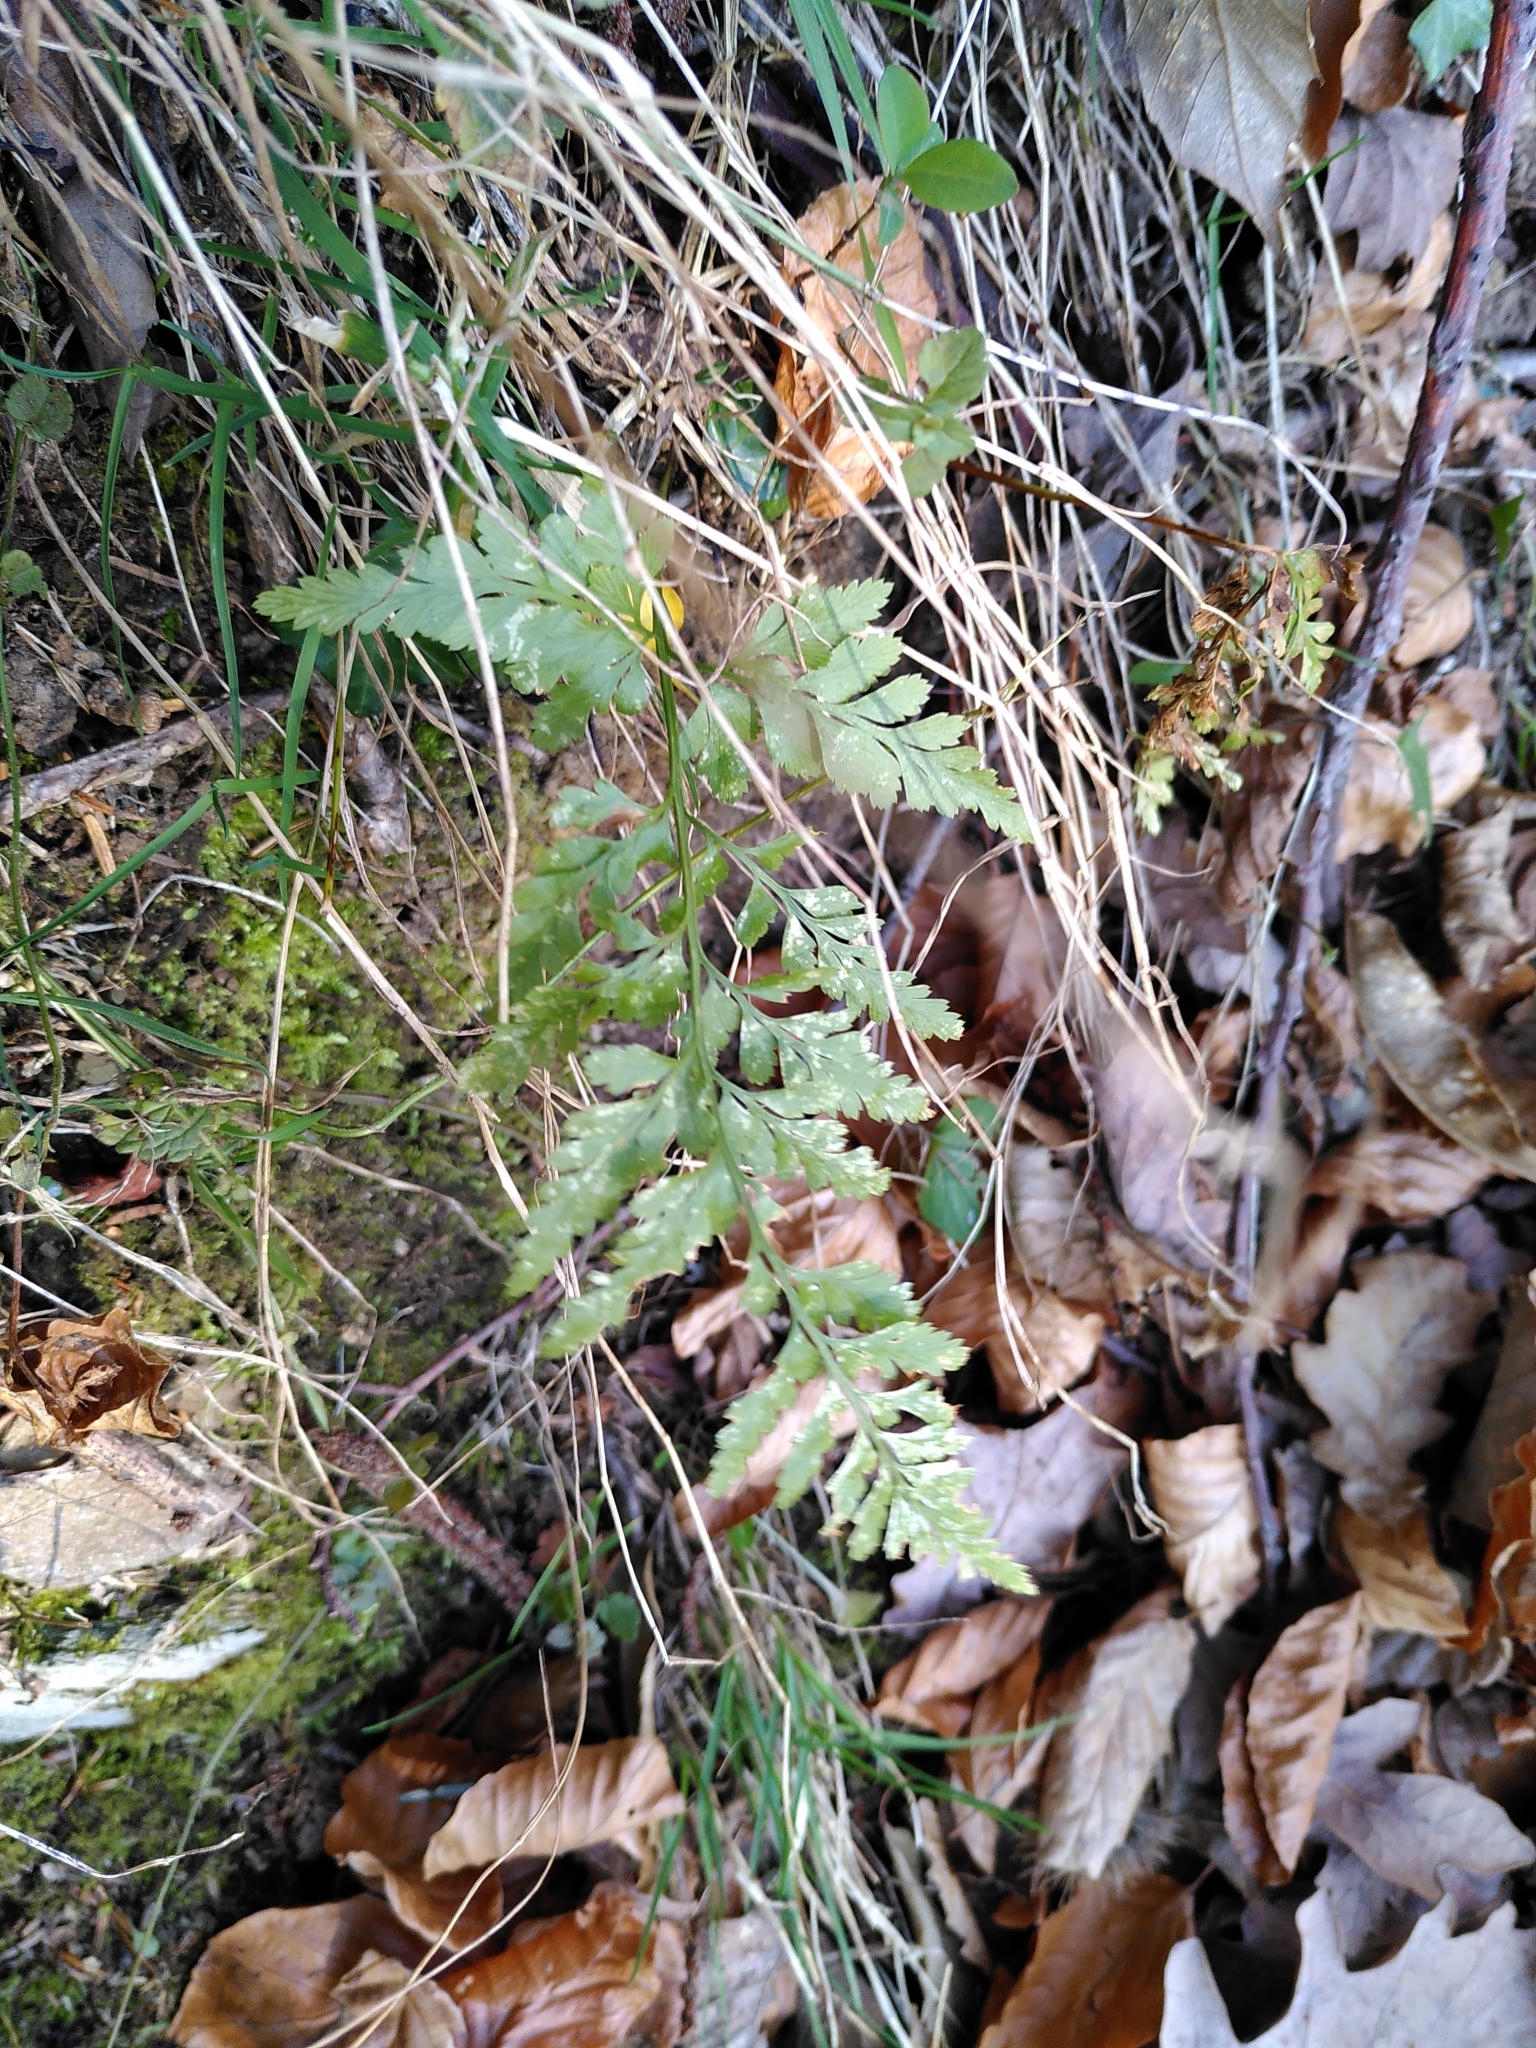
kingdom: Plantae
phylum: Tracheophyta
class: Polypodiopsida
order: Polypodiales
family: Aspleniaceae
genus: Asplenium
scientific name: Asplenium adiantum-nigrum
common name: Black spleenwort
